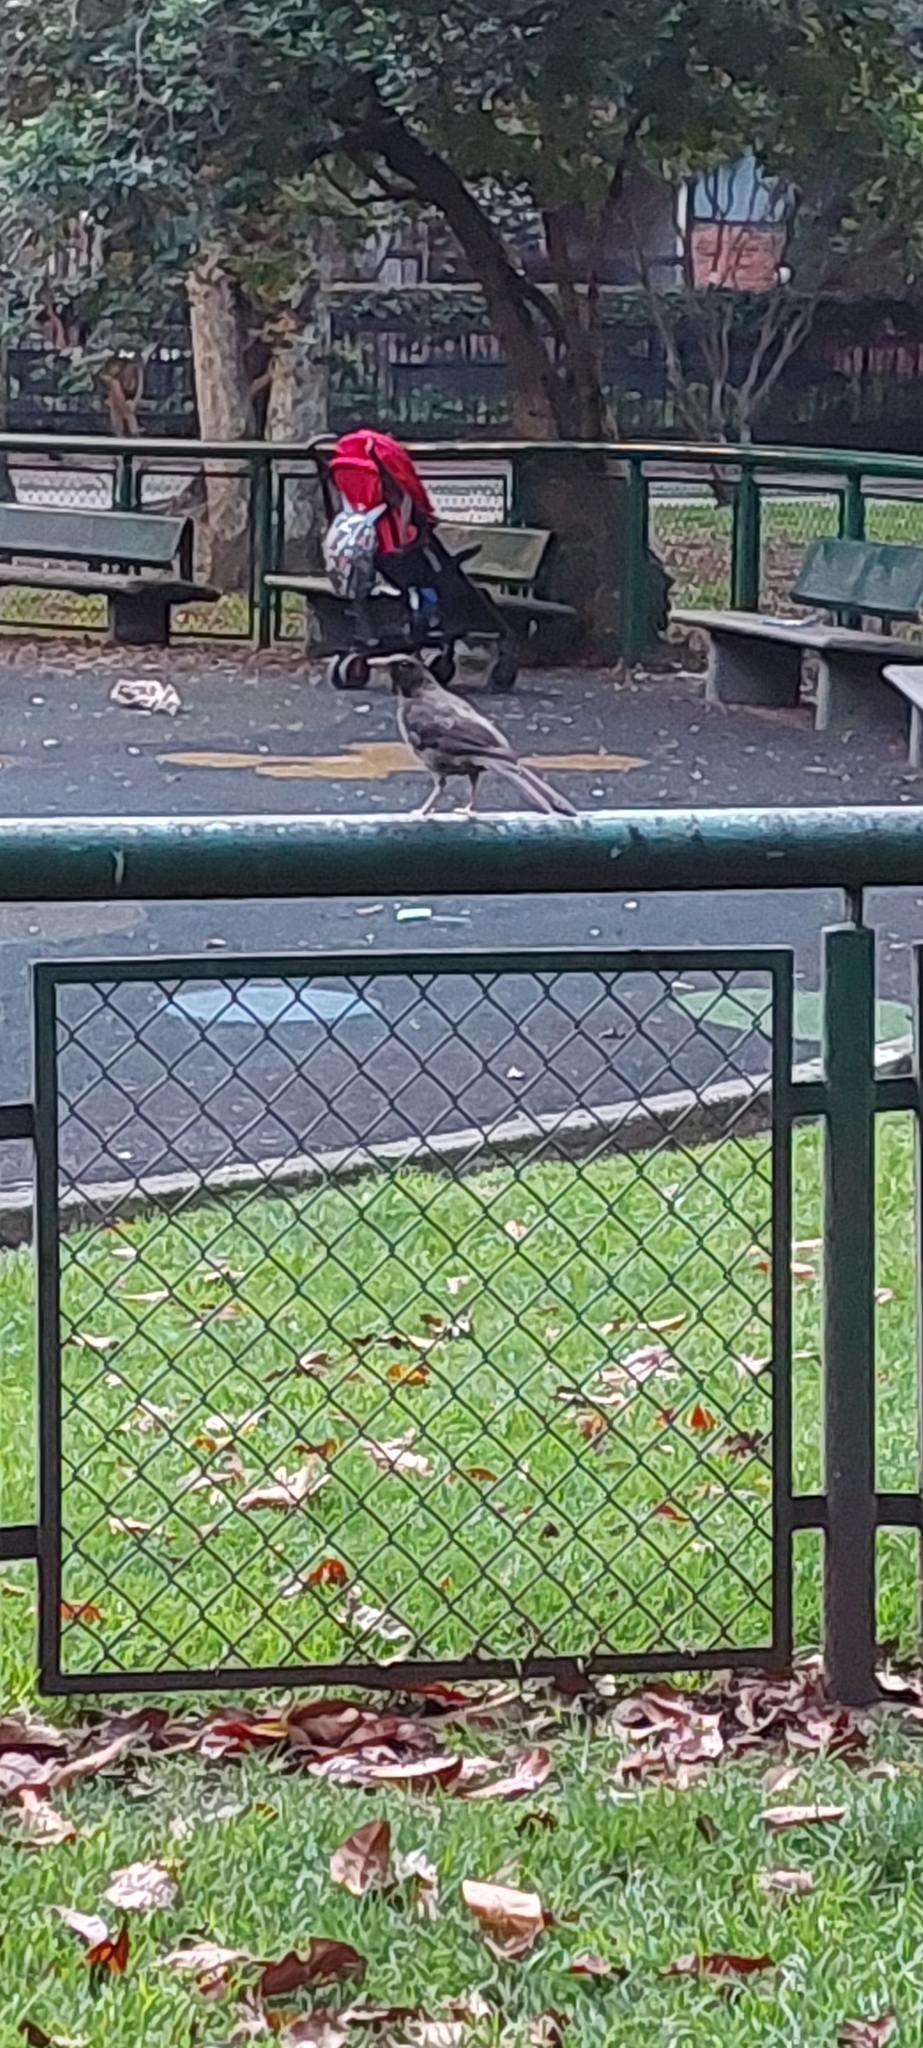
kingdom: Animalia
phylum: Chordata
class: Aves
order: Passeriformes
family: Turdidae
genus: Turdus
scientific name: Turdus fuscater
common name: Great thrush
